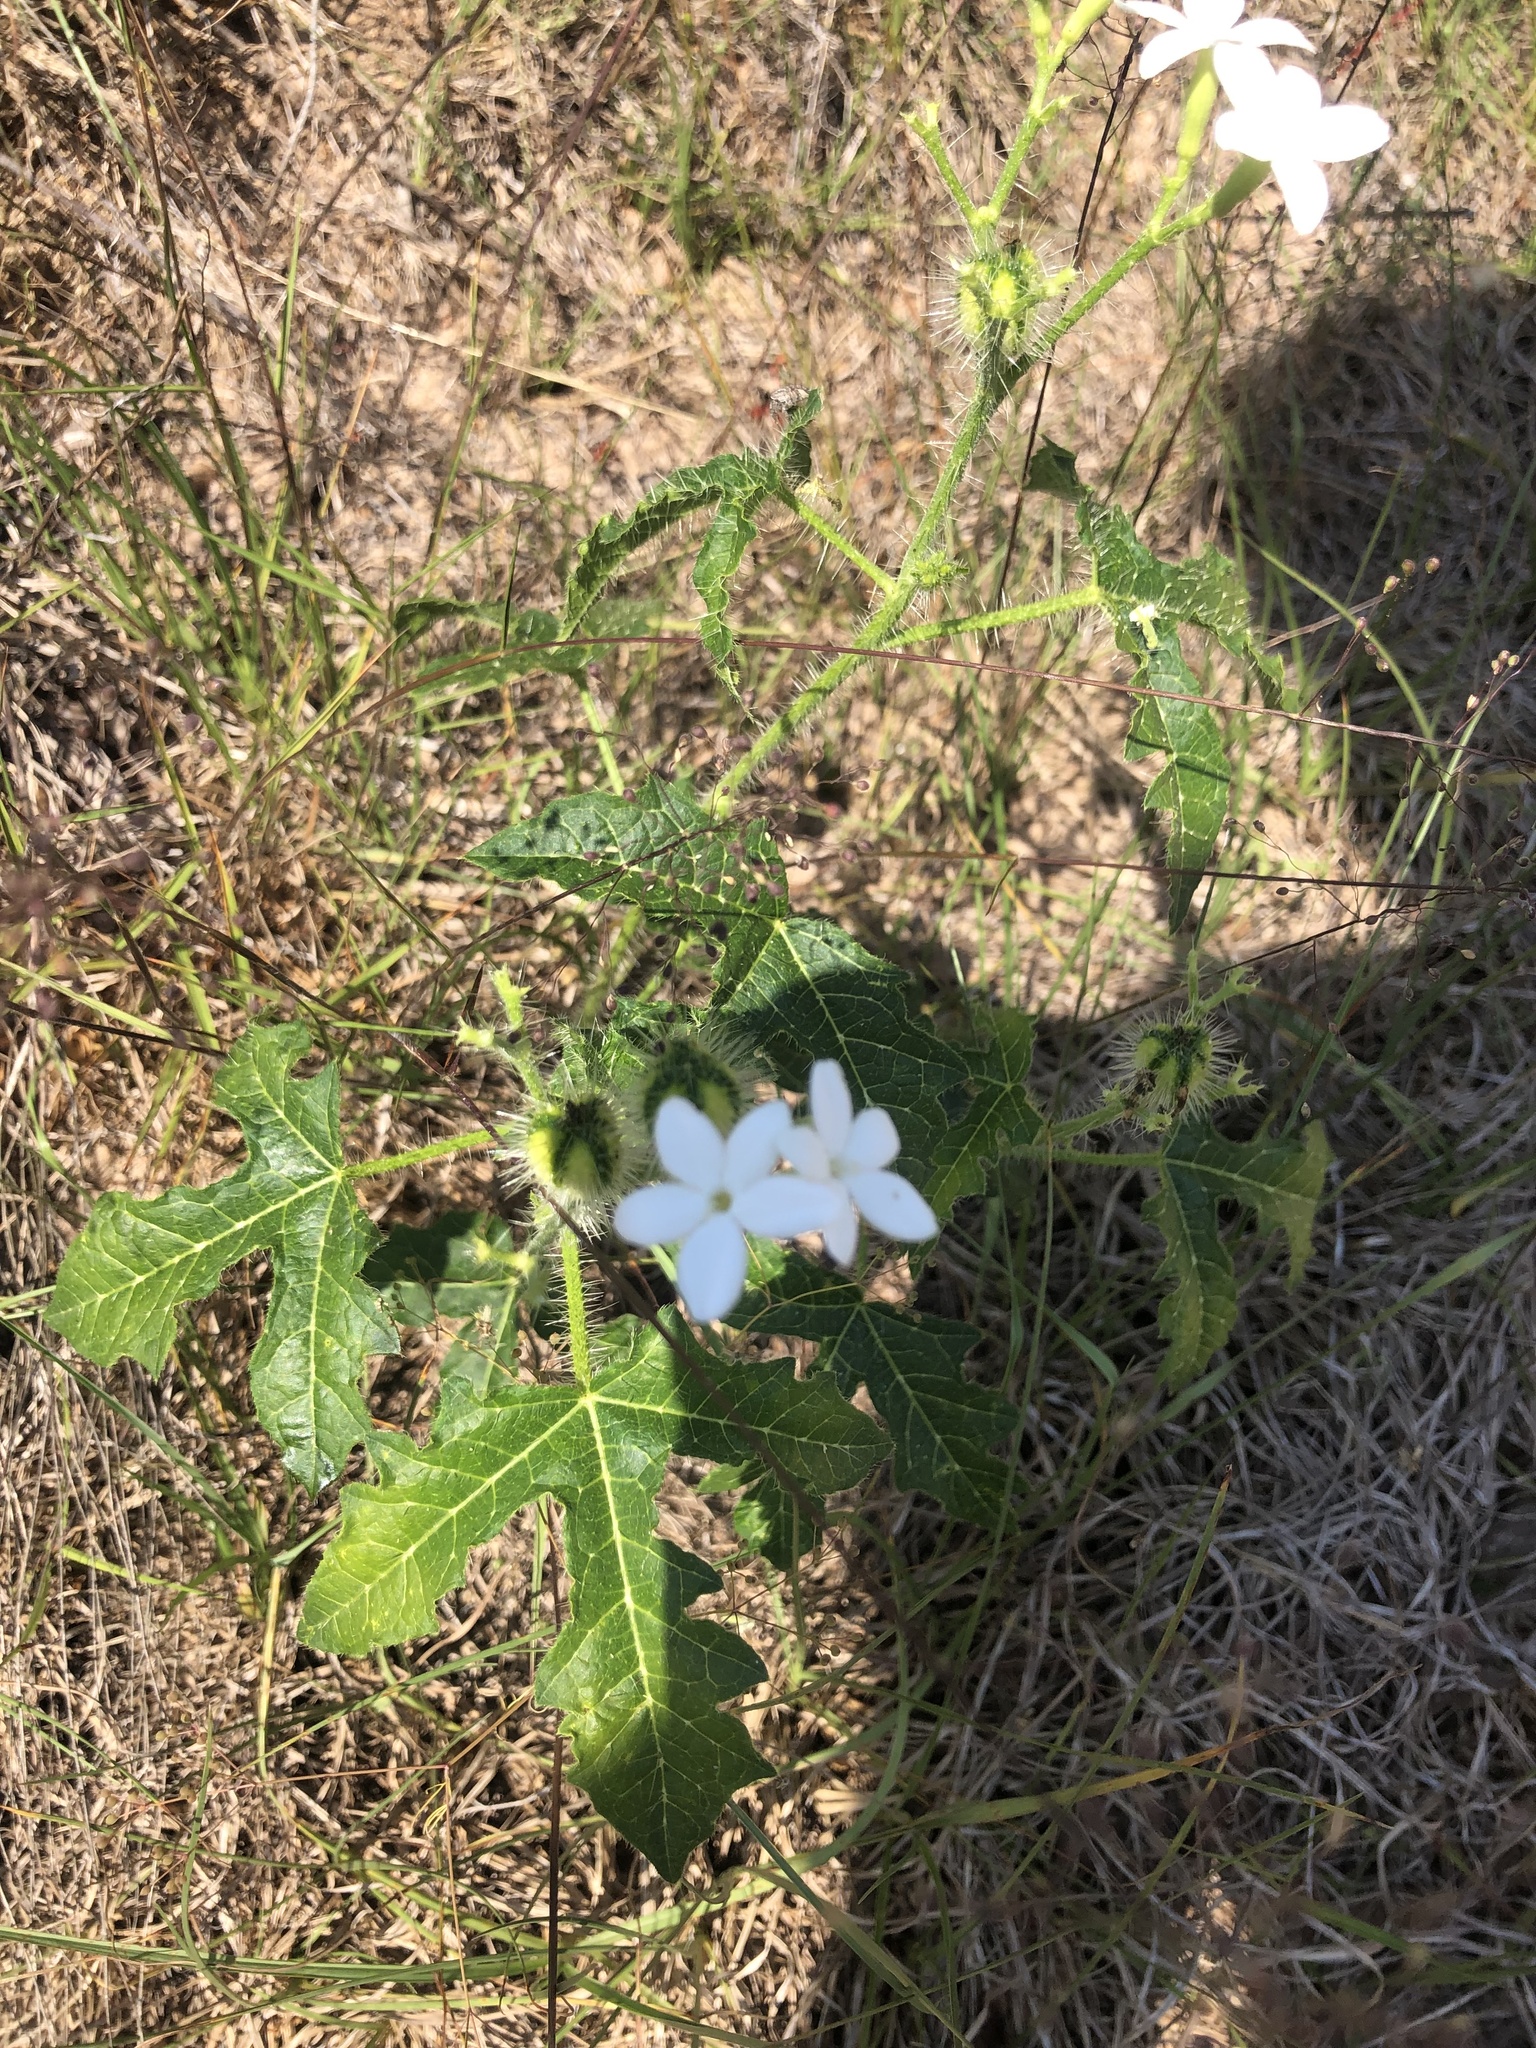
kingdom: Plantae
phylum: Tracheophyta
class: Magnoliopsida
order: Malpighiales
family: Euphorbiaceae
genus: Cnidoscolus
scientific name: Cnidoscolus stimulosus
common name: Bull-nettle
